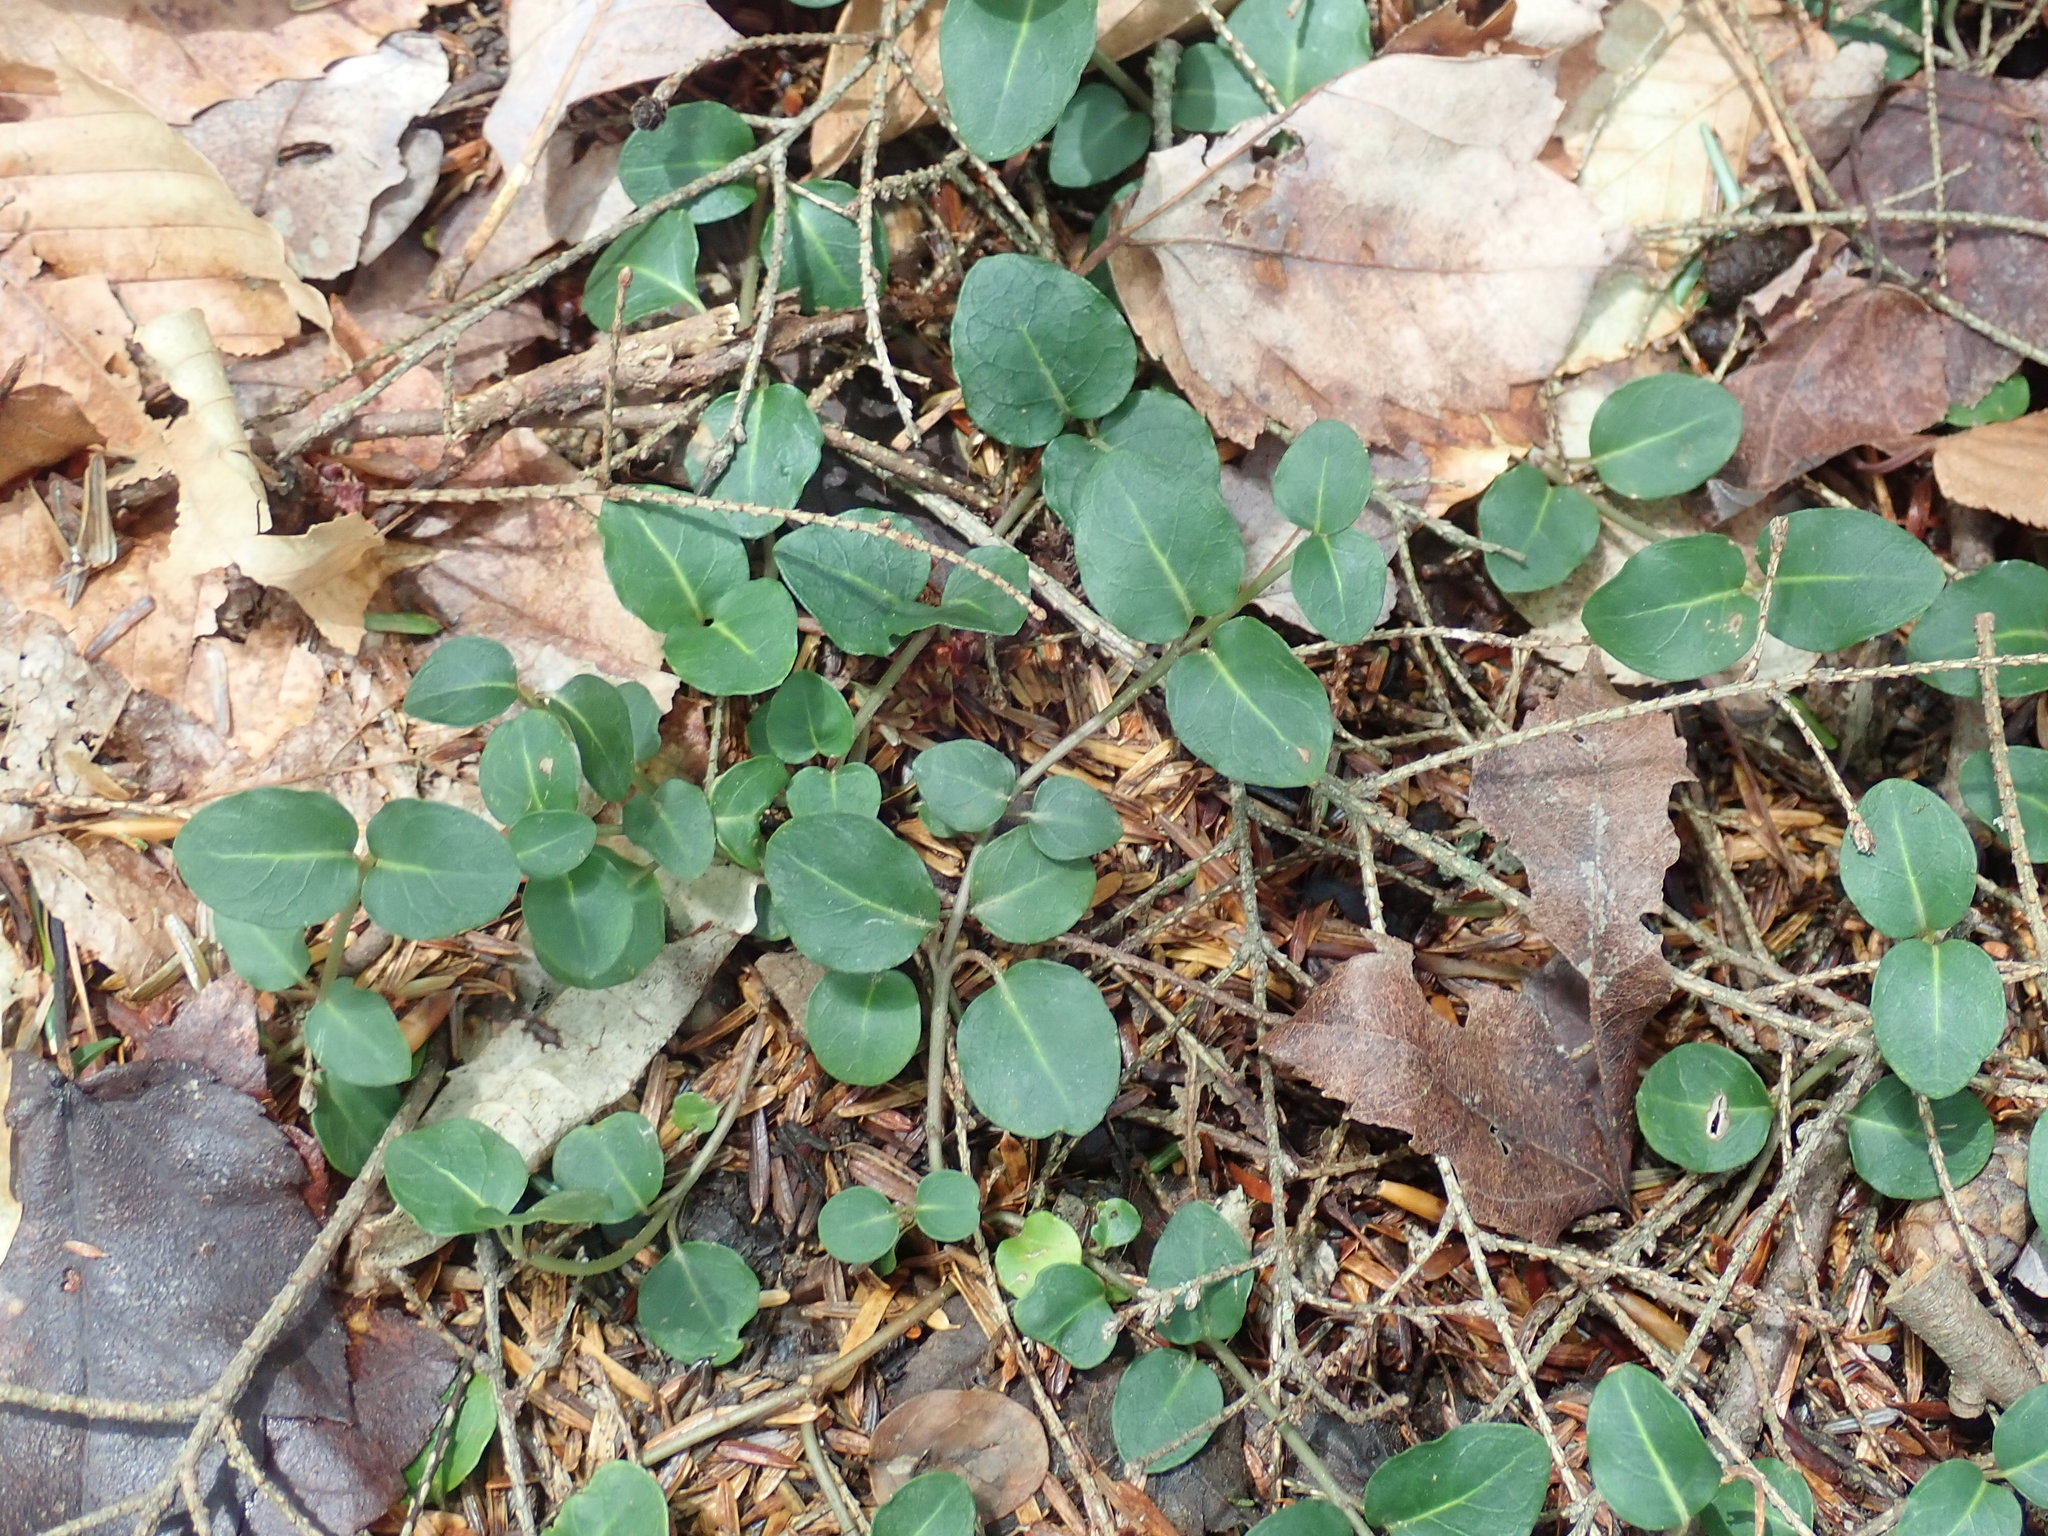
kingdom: Plantae
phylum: Tracheophyta
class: Magnoliopsida
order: Gentianales
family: Rubiaceae
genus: Mitchella
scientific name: Mitchella repens
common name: Partridge-berry
